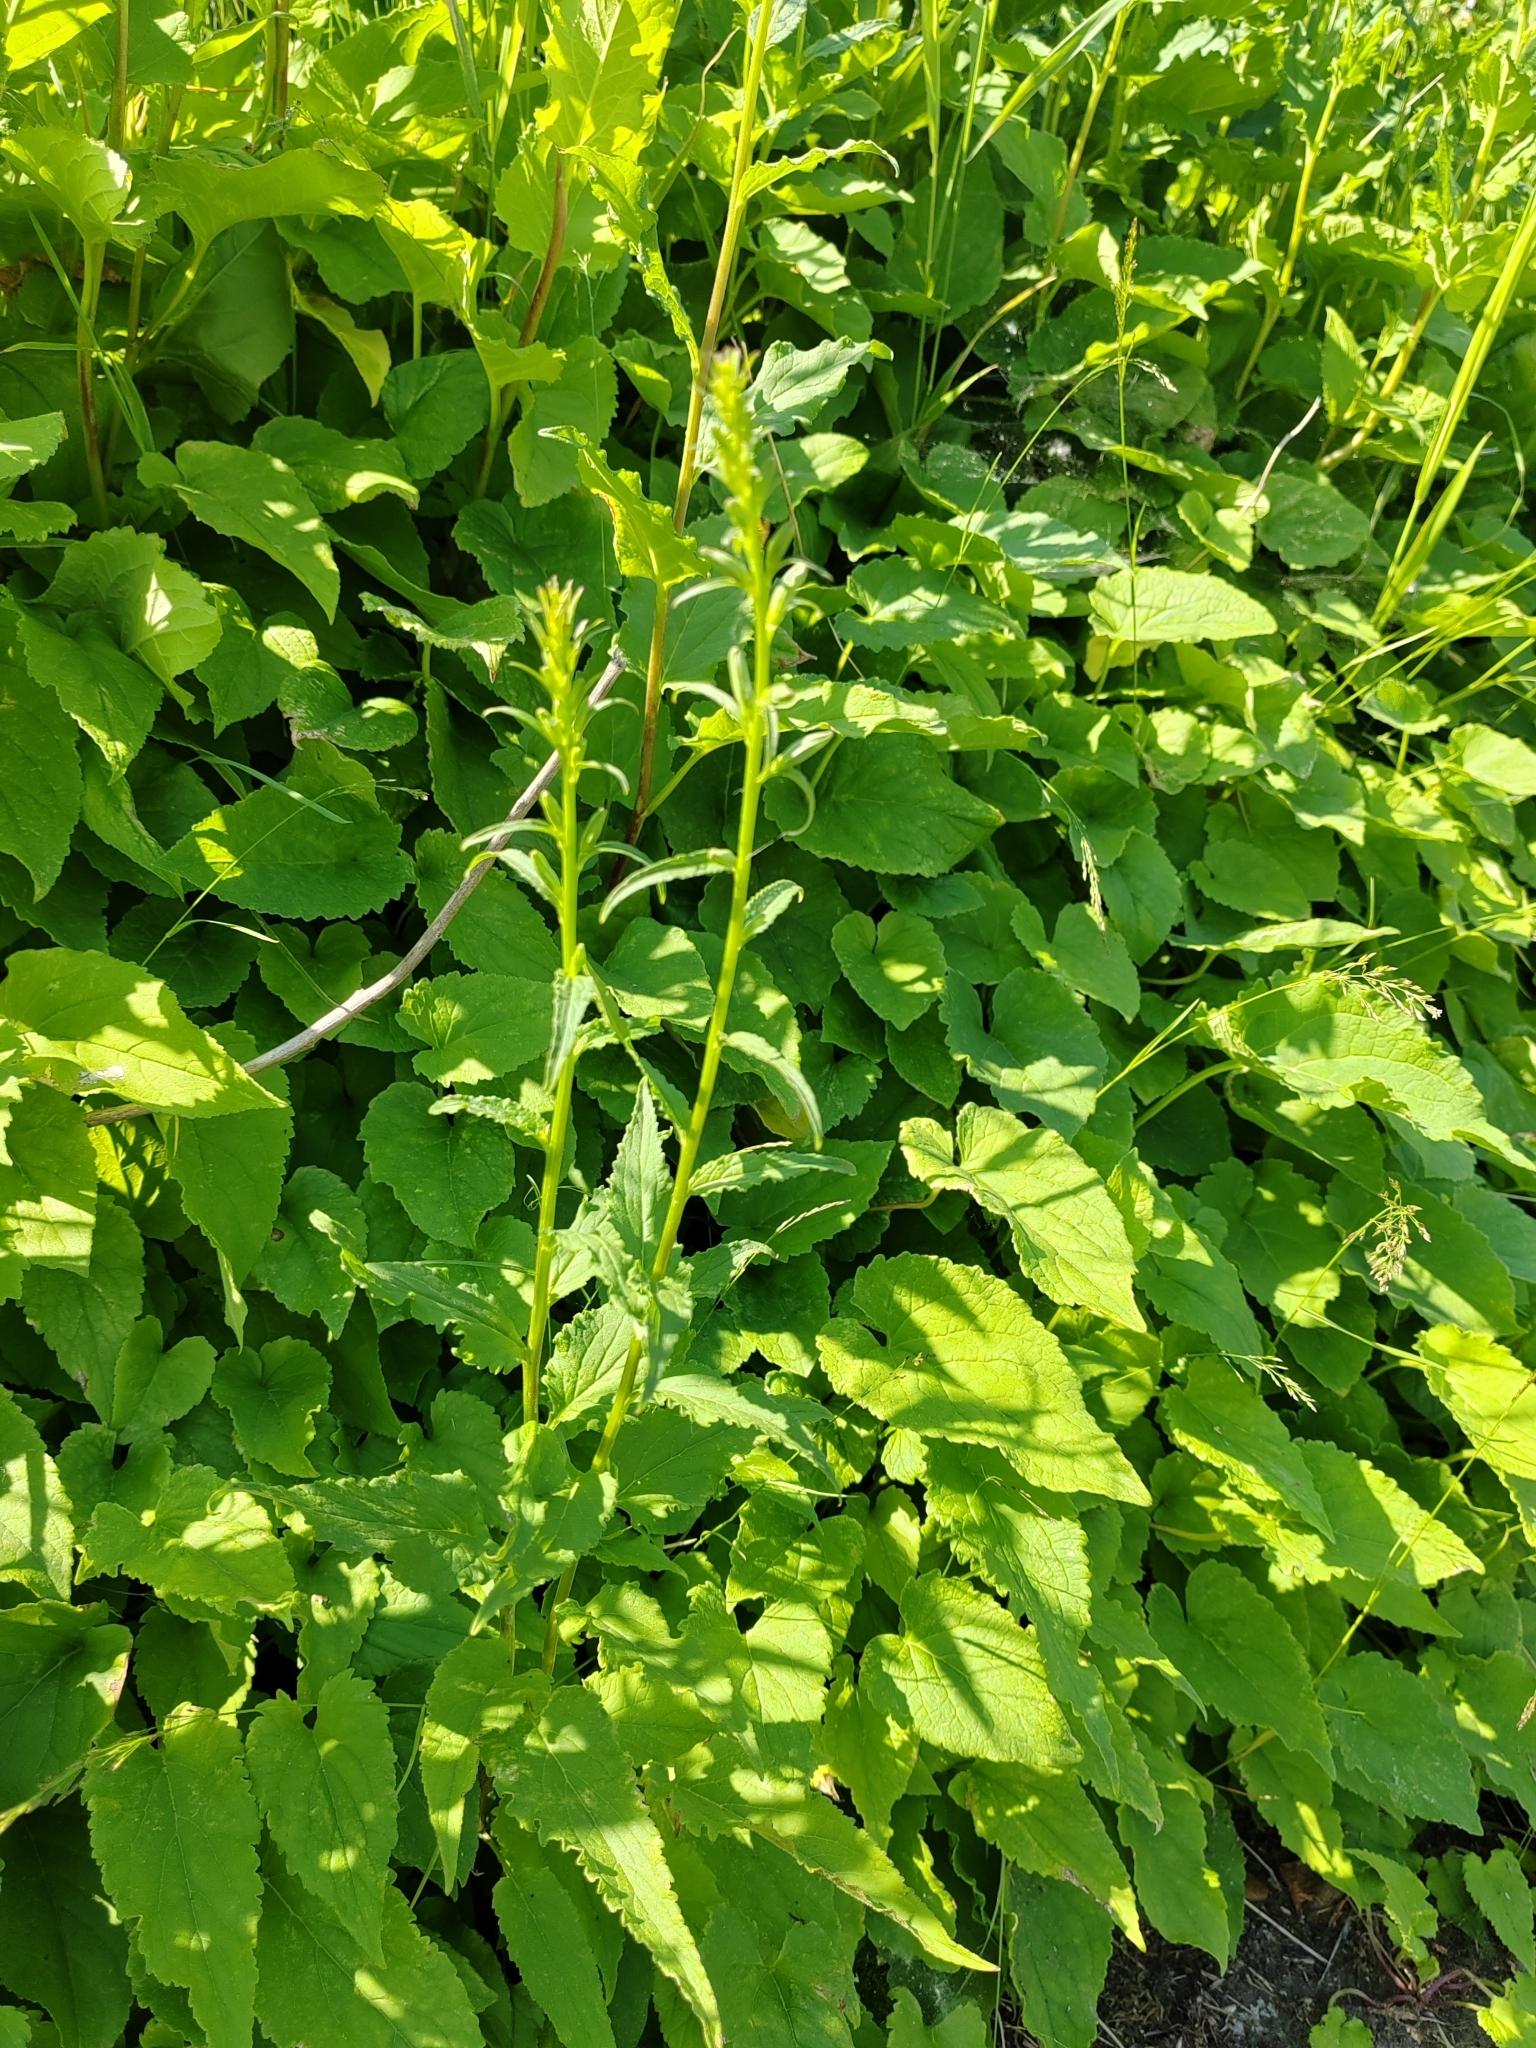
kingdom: Plantae
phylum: Tracheophyta
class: Magnoliopsida
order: Asterales
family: Campanulaceae
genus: Campanula
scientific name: Campanula rapunculoides
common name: Creeping bellflower
